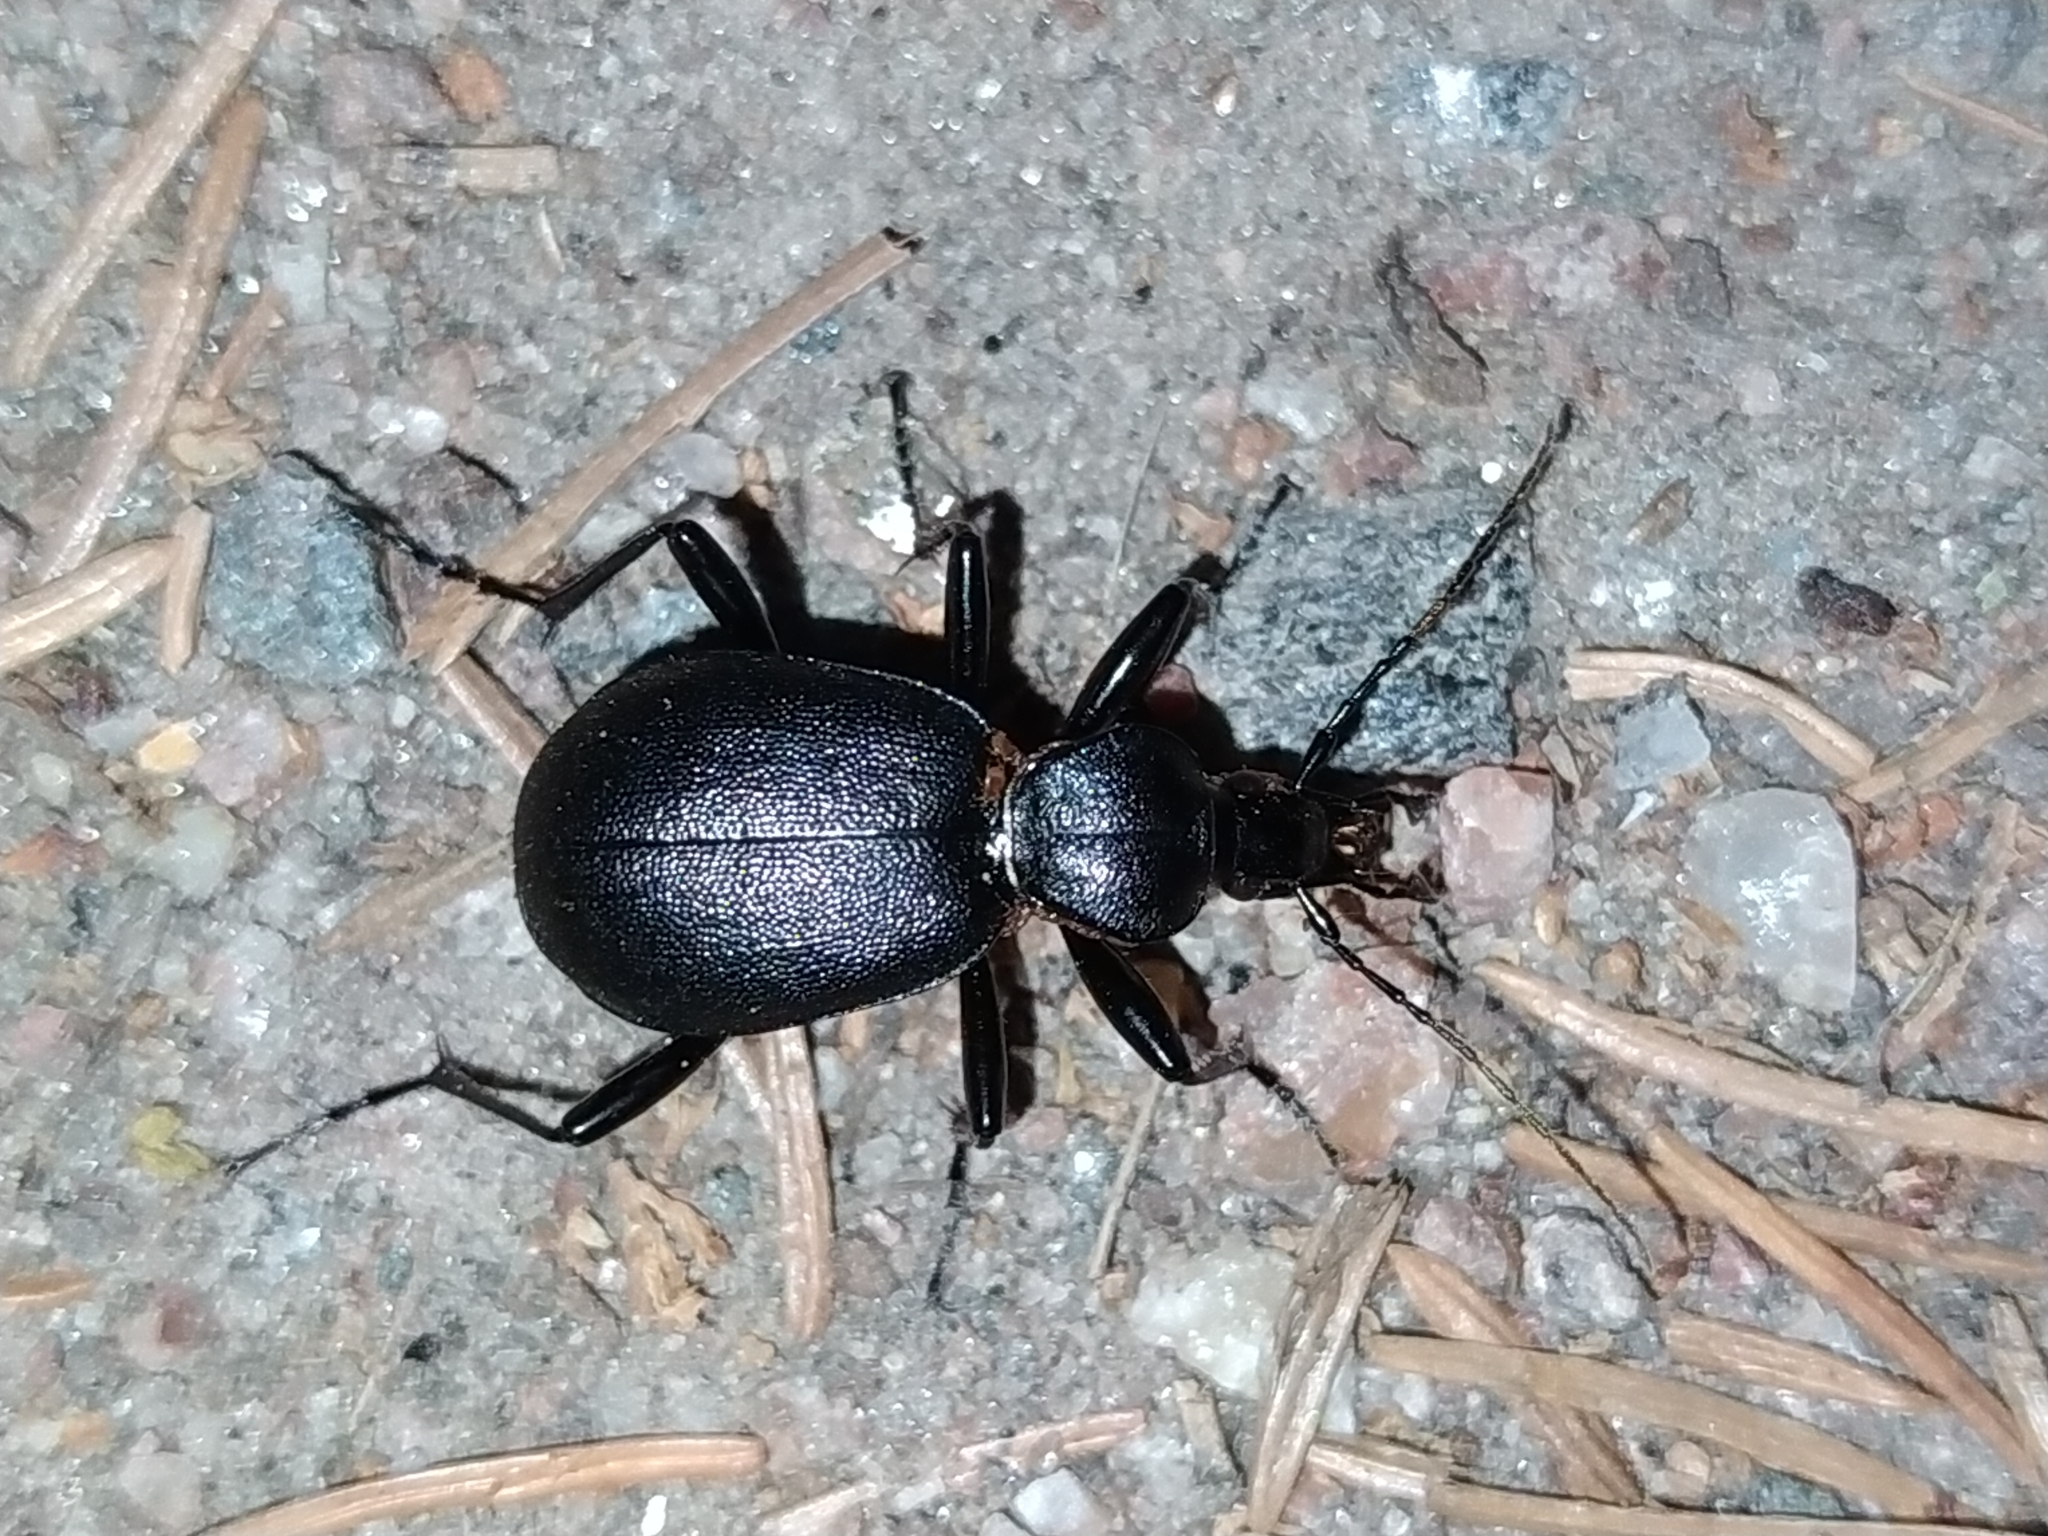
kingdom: Animalia
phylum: Arthropoda
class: Insecta
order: Coleoptera
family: Carabidae
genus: Cychrus
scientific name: Cychrus caraboides
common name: Snail hunter
